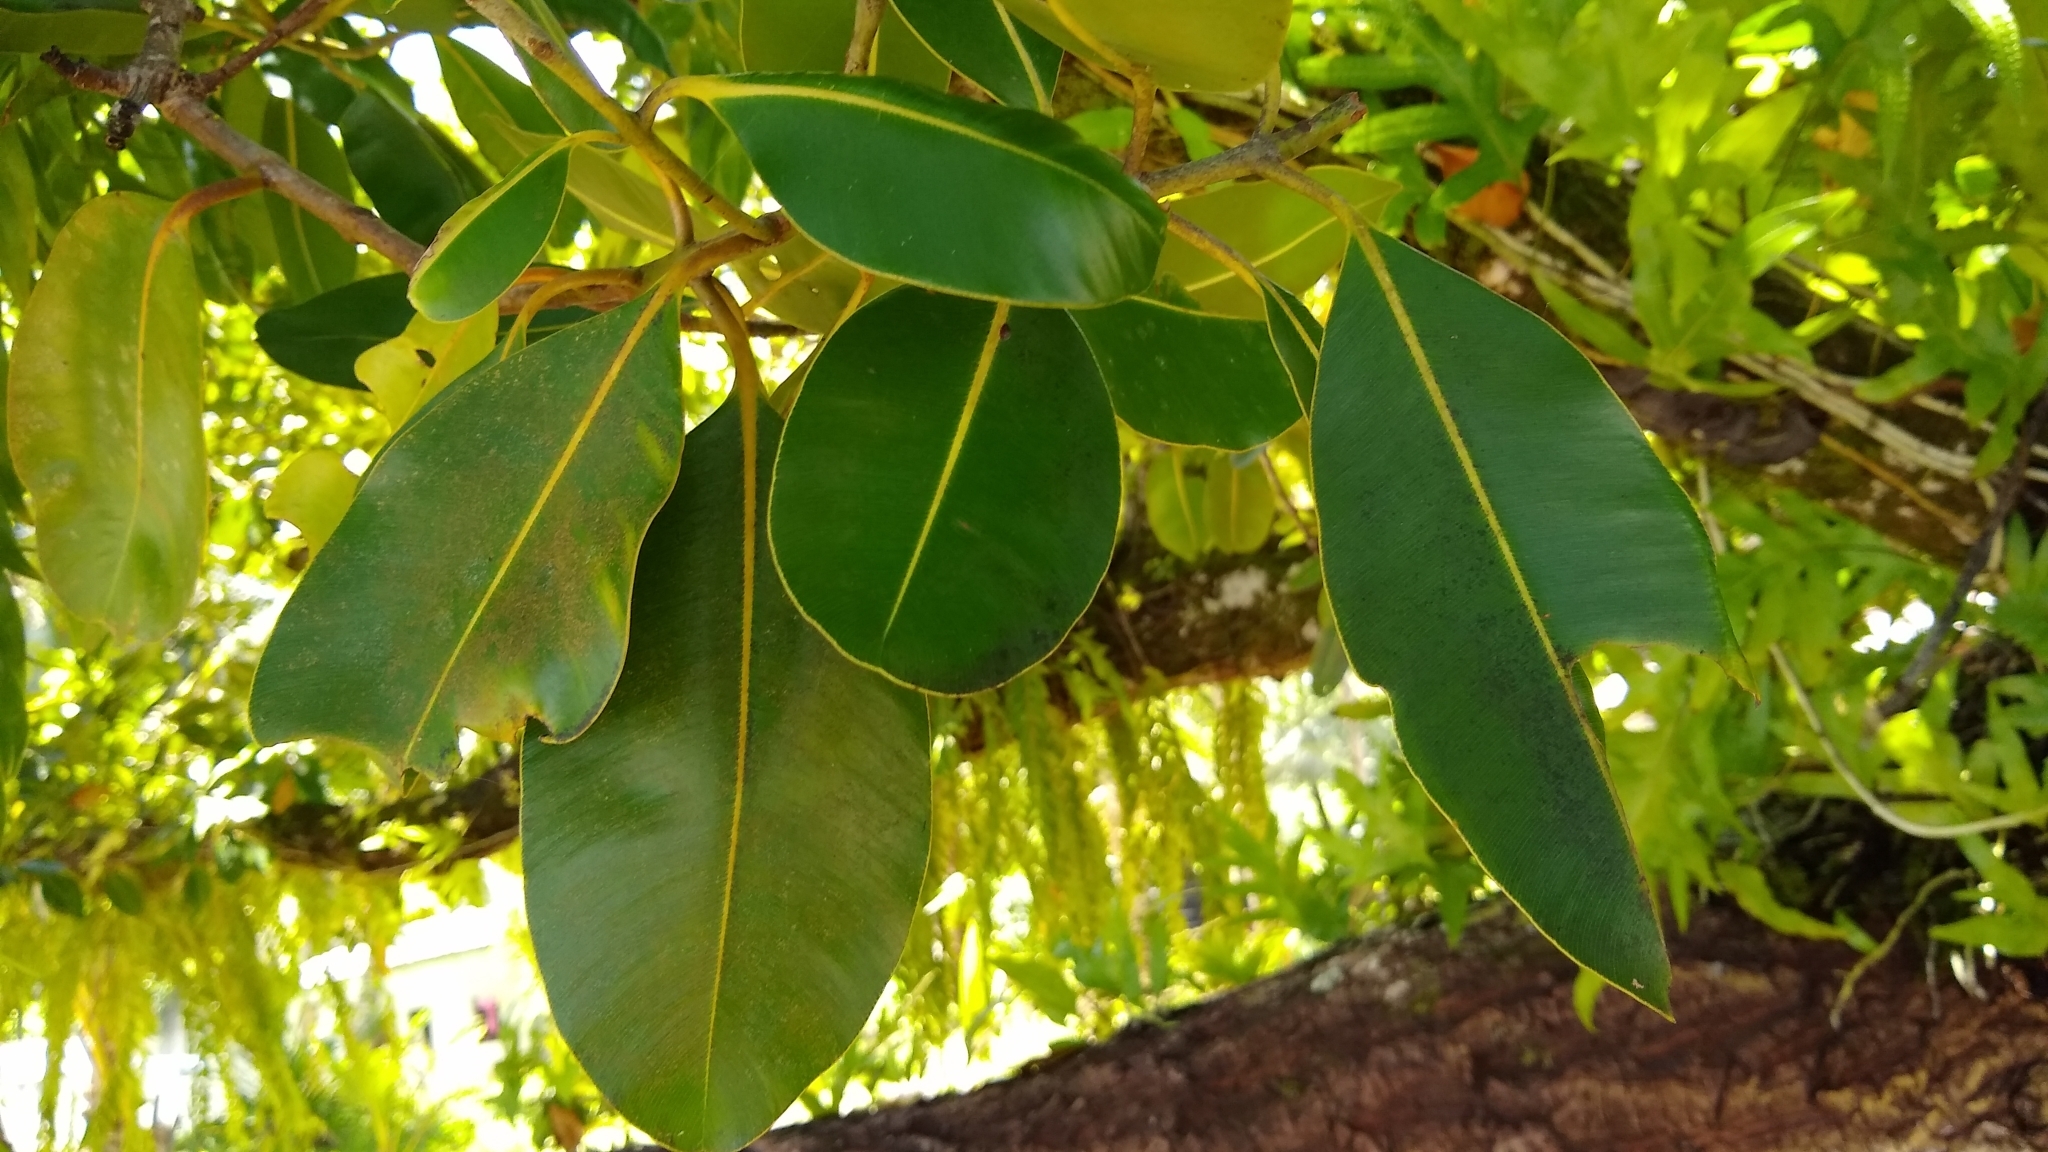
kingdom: Plantae
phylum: Tracheophyta
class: Magnoliopsida
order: Malpighiales
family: Calophyllaceae
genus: Calophyllum
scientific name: Calophyllum inophyllum
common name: Alexandrian laurel
